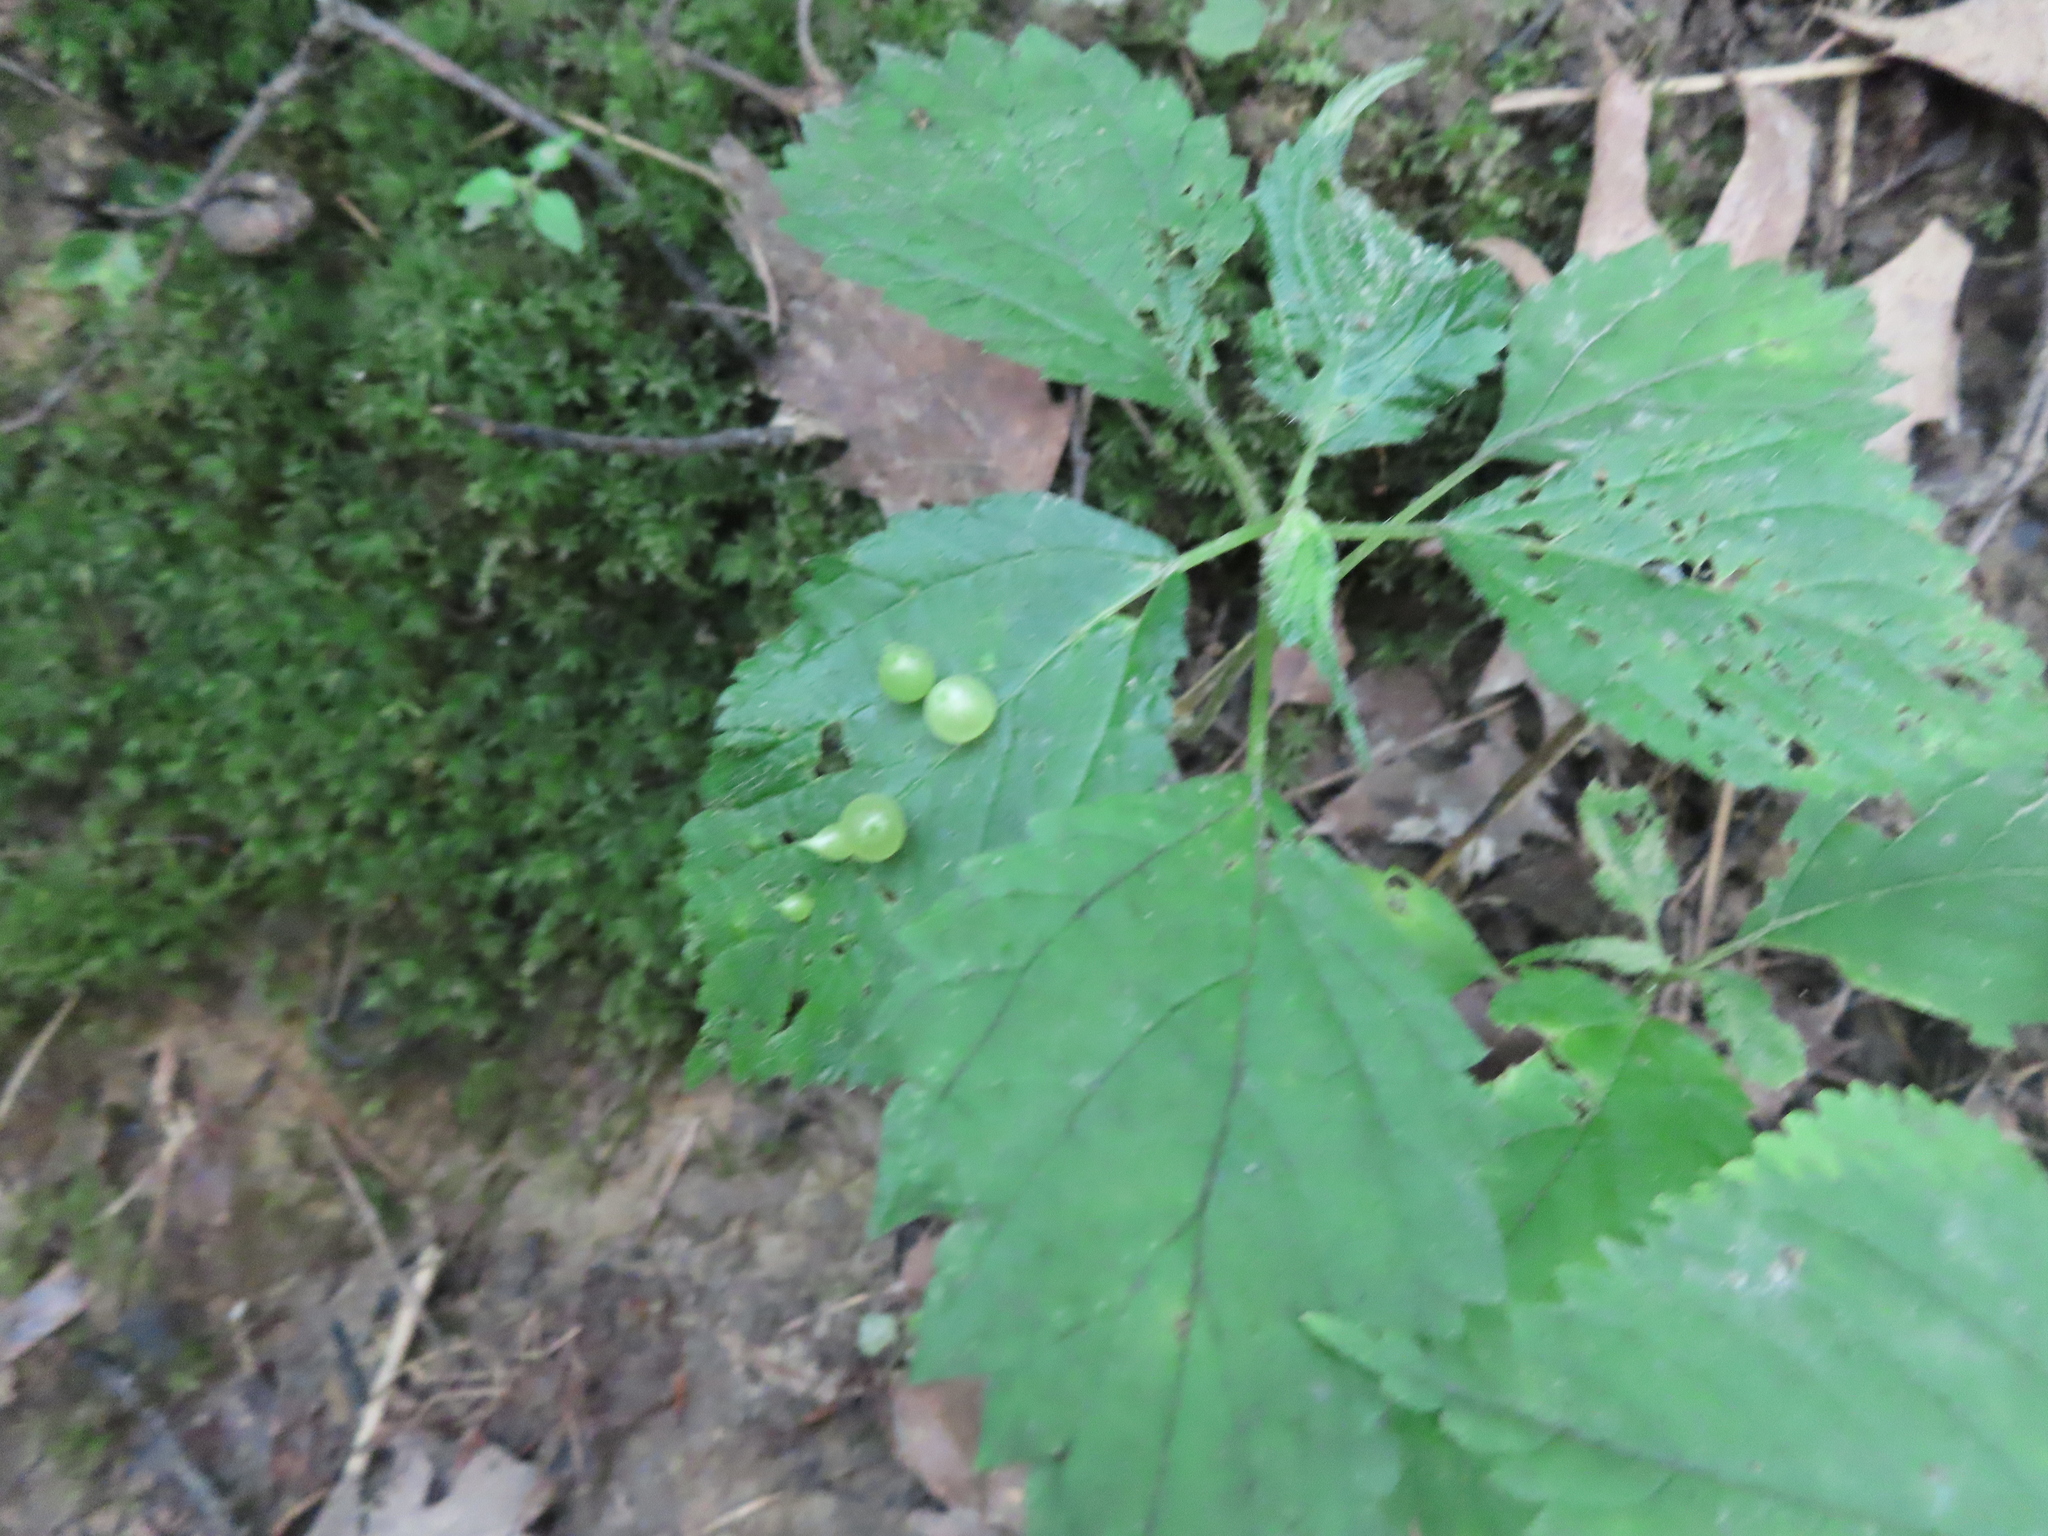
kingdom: Animalia
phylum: Arthropoda
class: Insecta
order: Diptera
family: Cecidomyiidae
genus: Dasineura
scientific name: Dasineura investita
